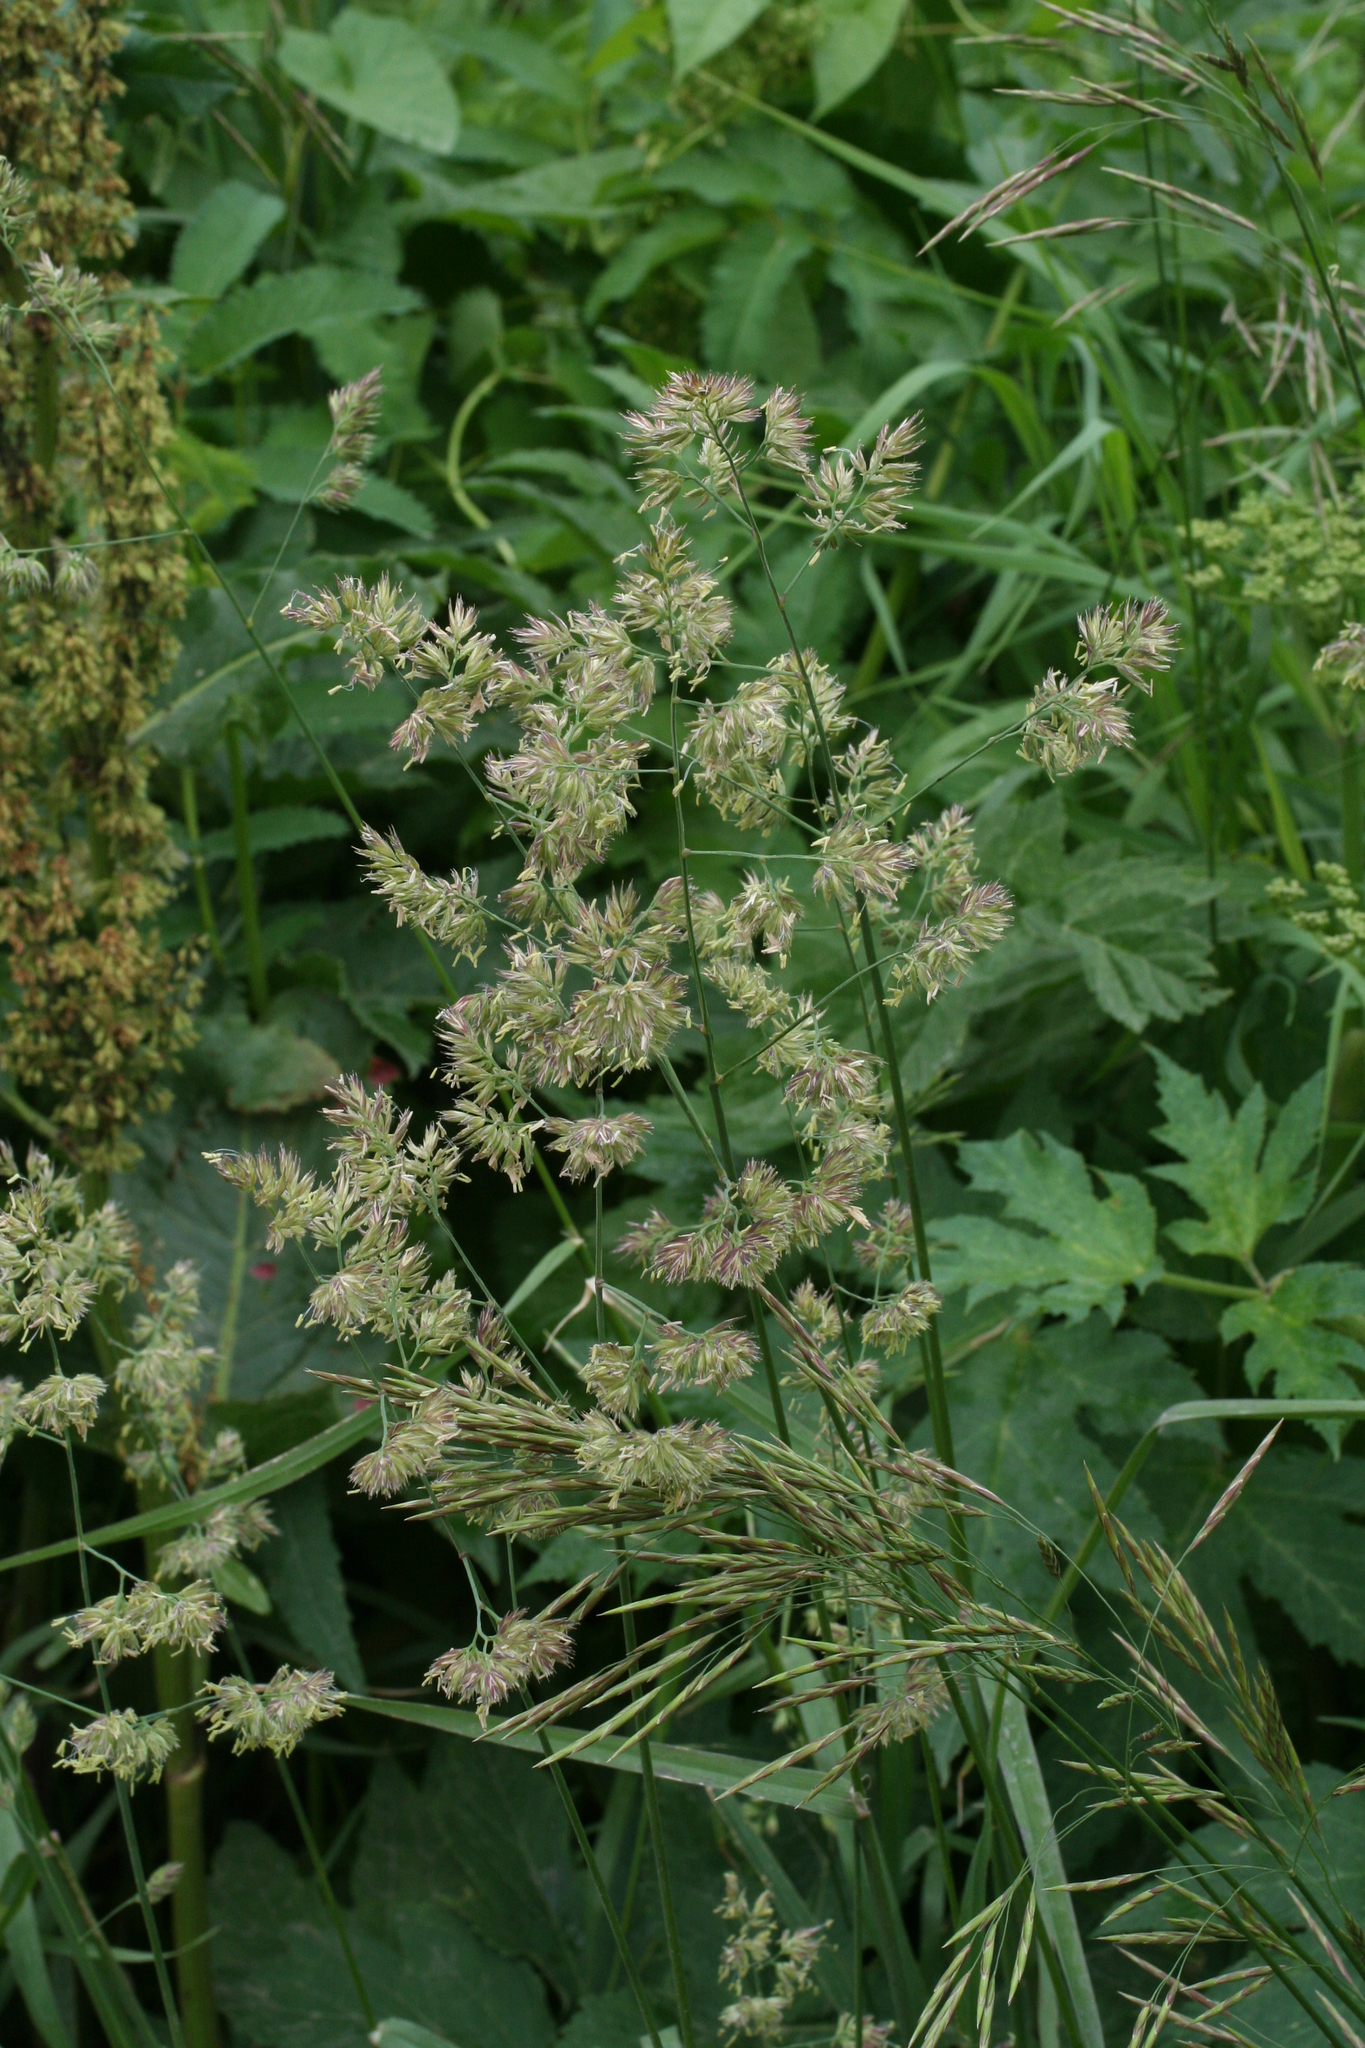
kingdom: Plantae
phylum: Tracheophyta
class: Liliopsida
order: Poales
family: Poaceae
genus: Dactylis
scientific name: Dactylis glomerata
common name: Orchardgrass
